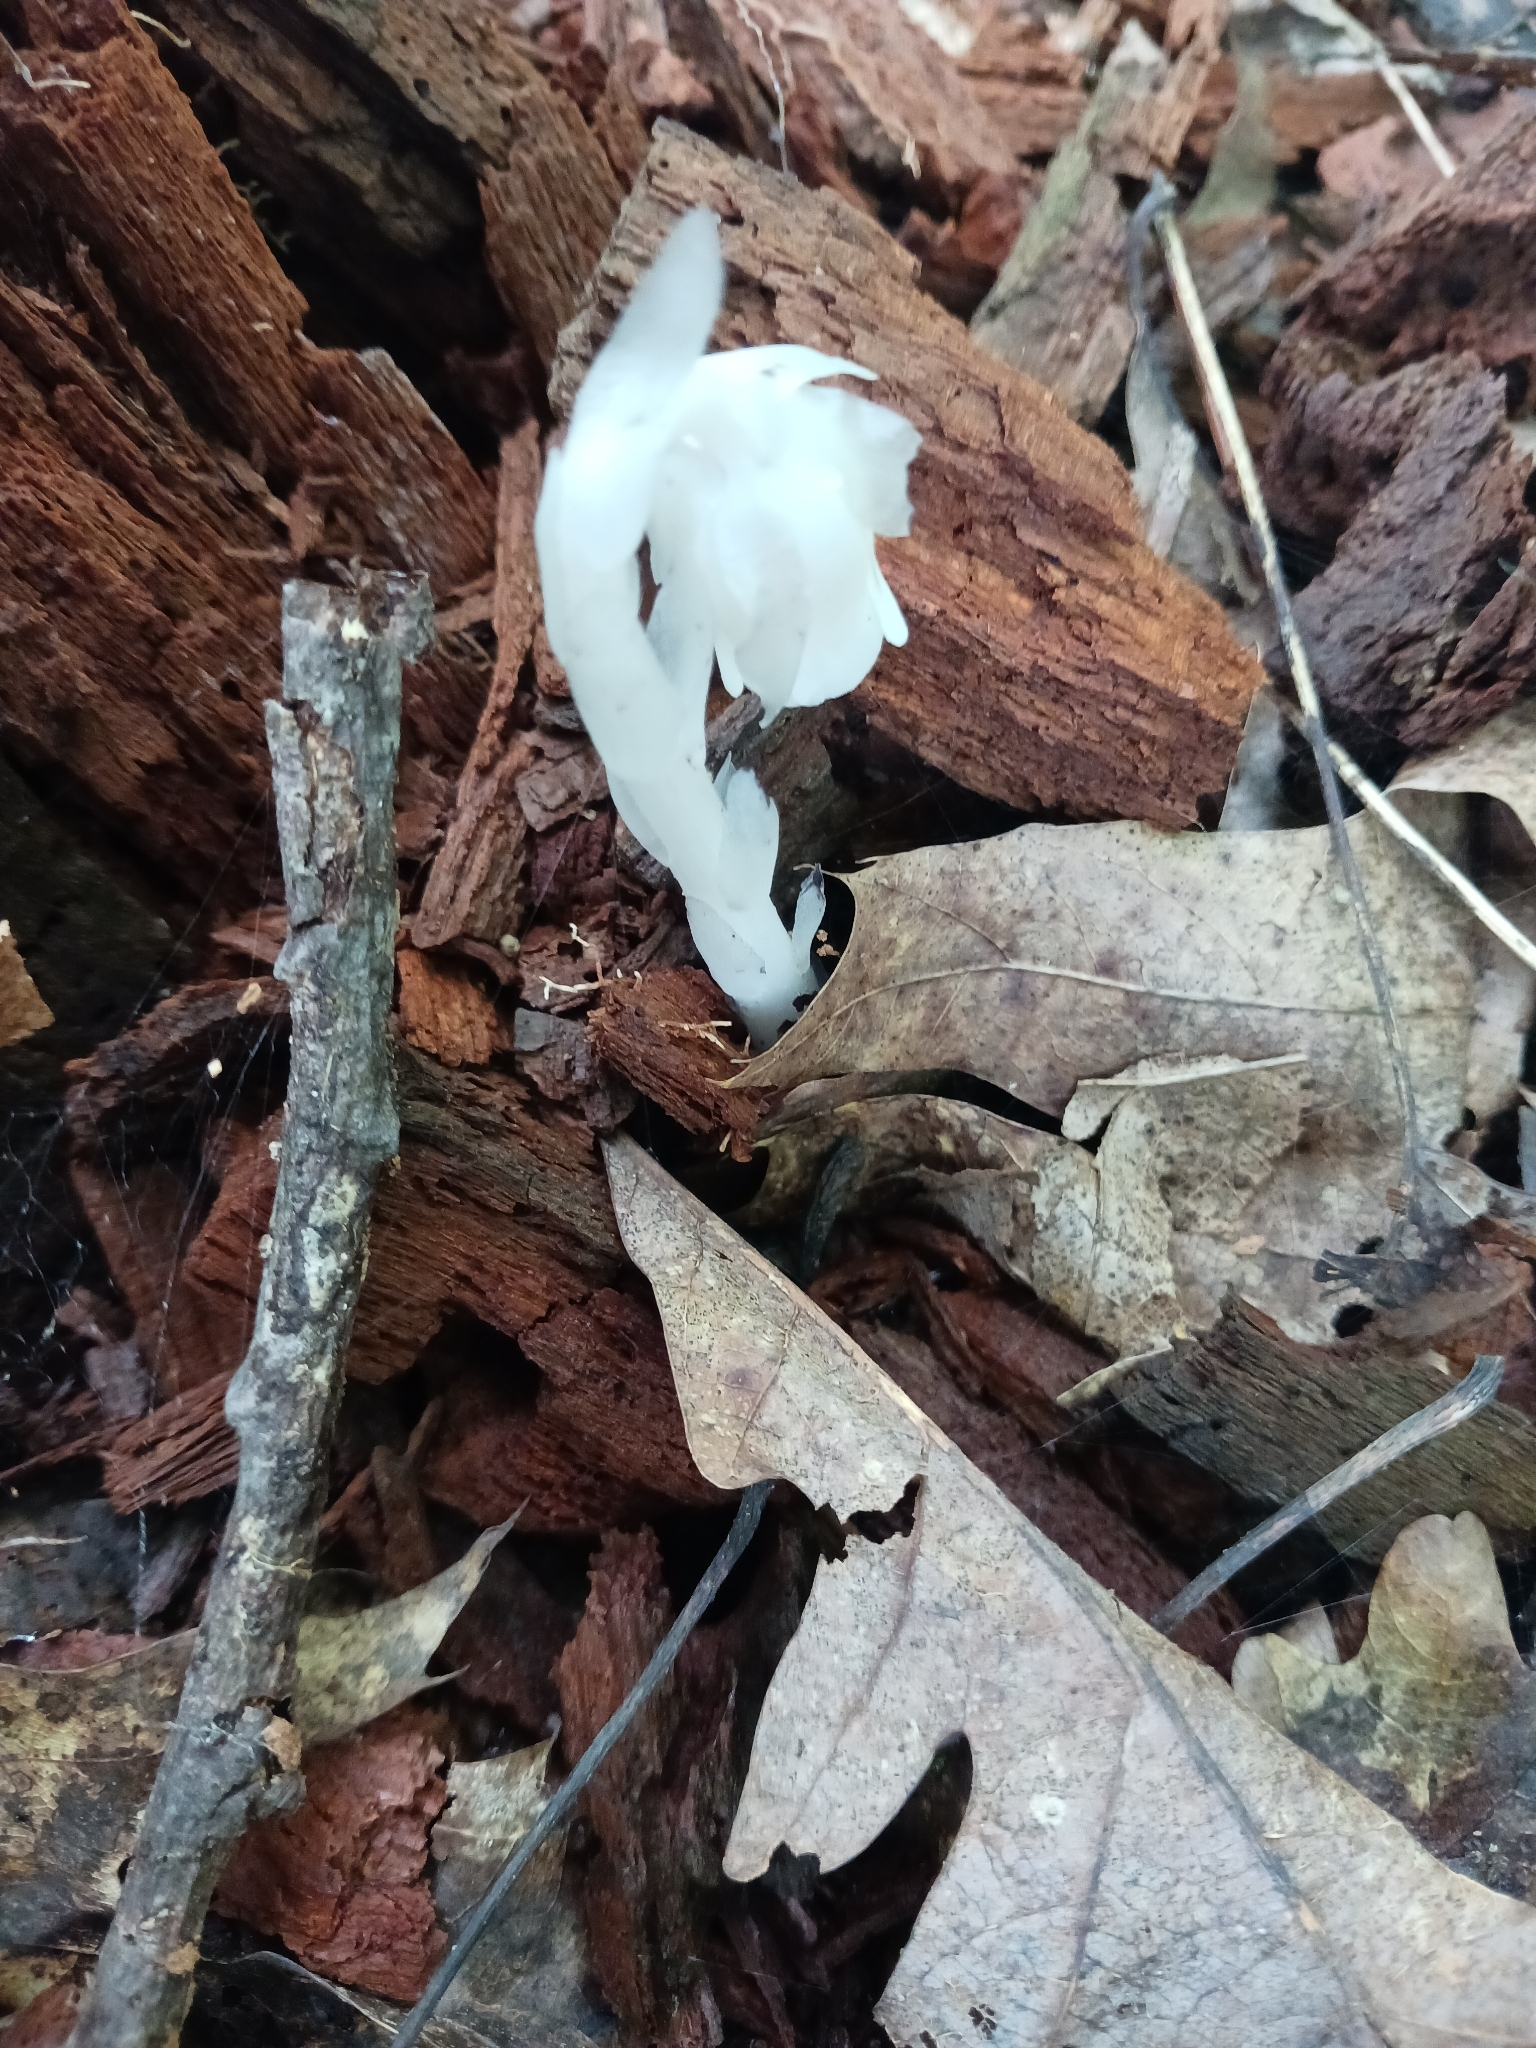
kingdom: Plantae
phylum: Tracheophyta
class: Magnoliopsida
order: Ericales
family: Ericaceae
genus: Monotropa
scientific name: Monotropa uniflora
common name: Convulsion root
